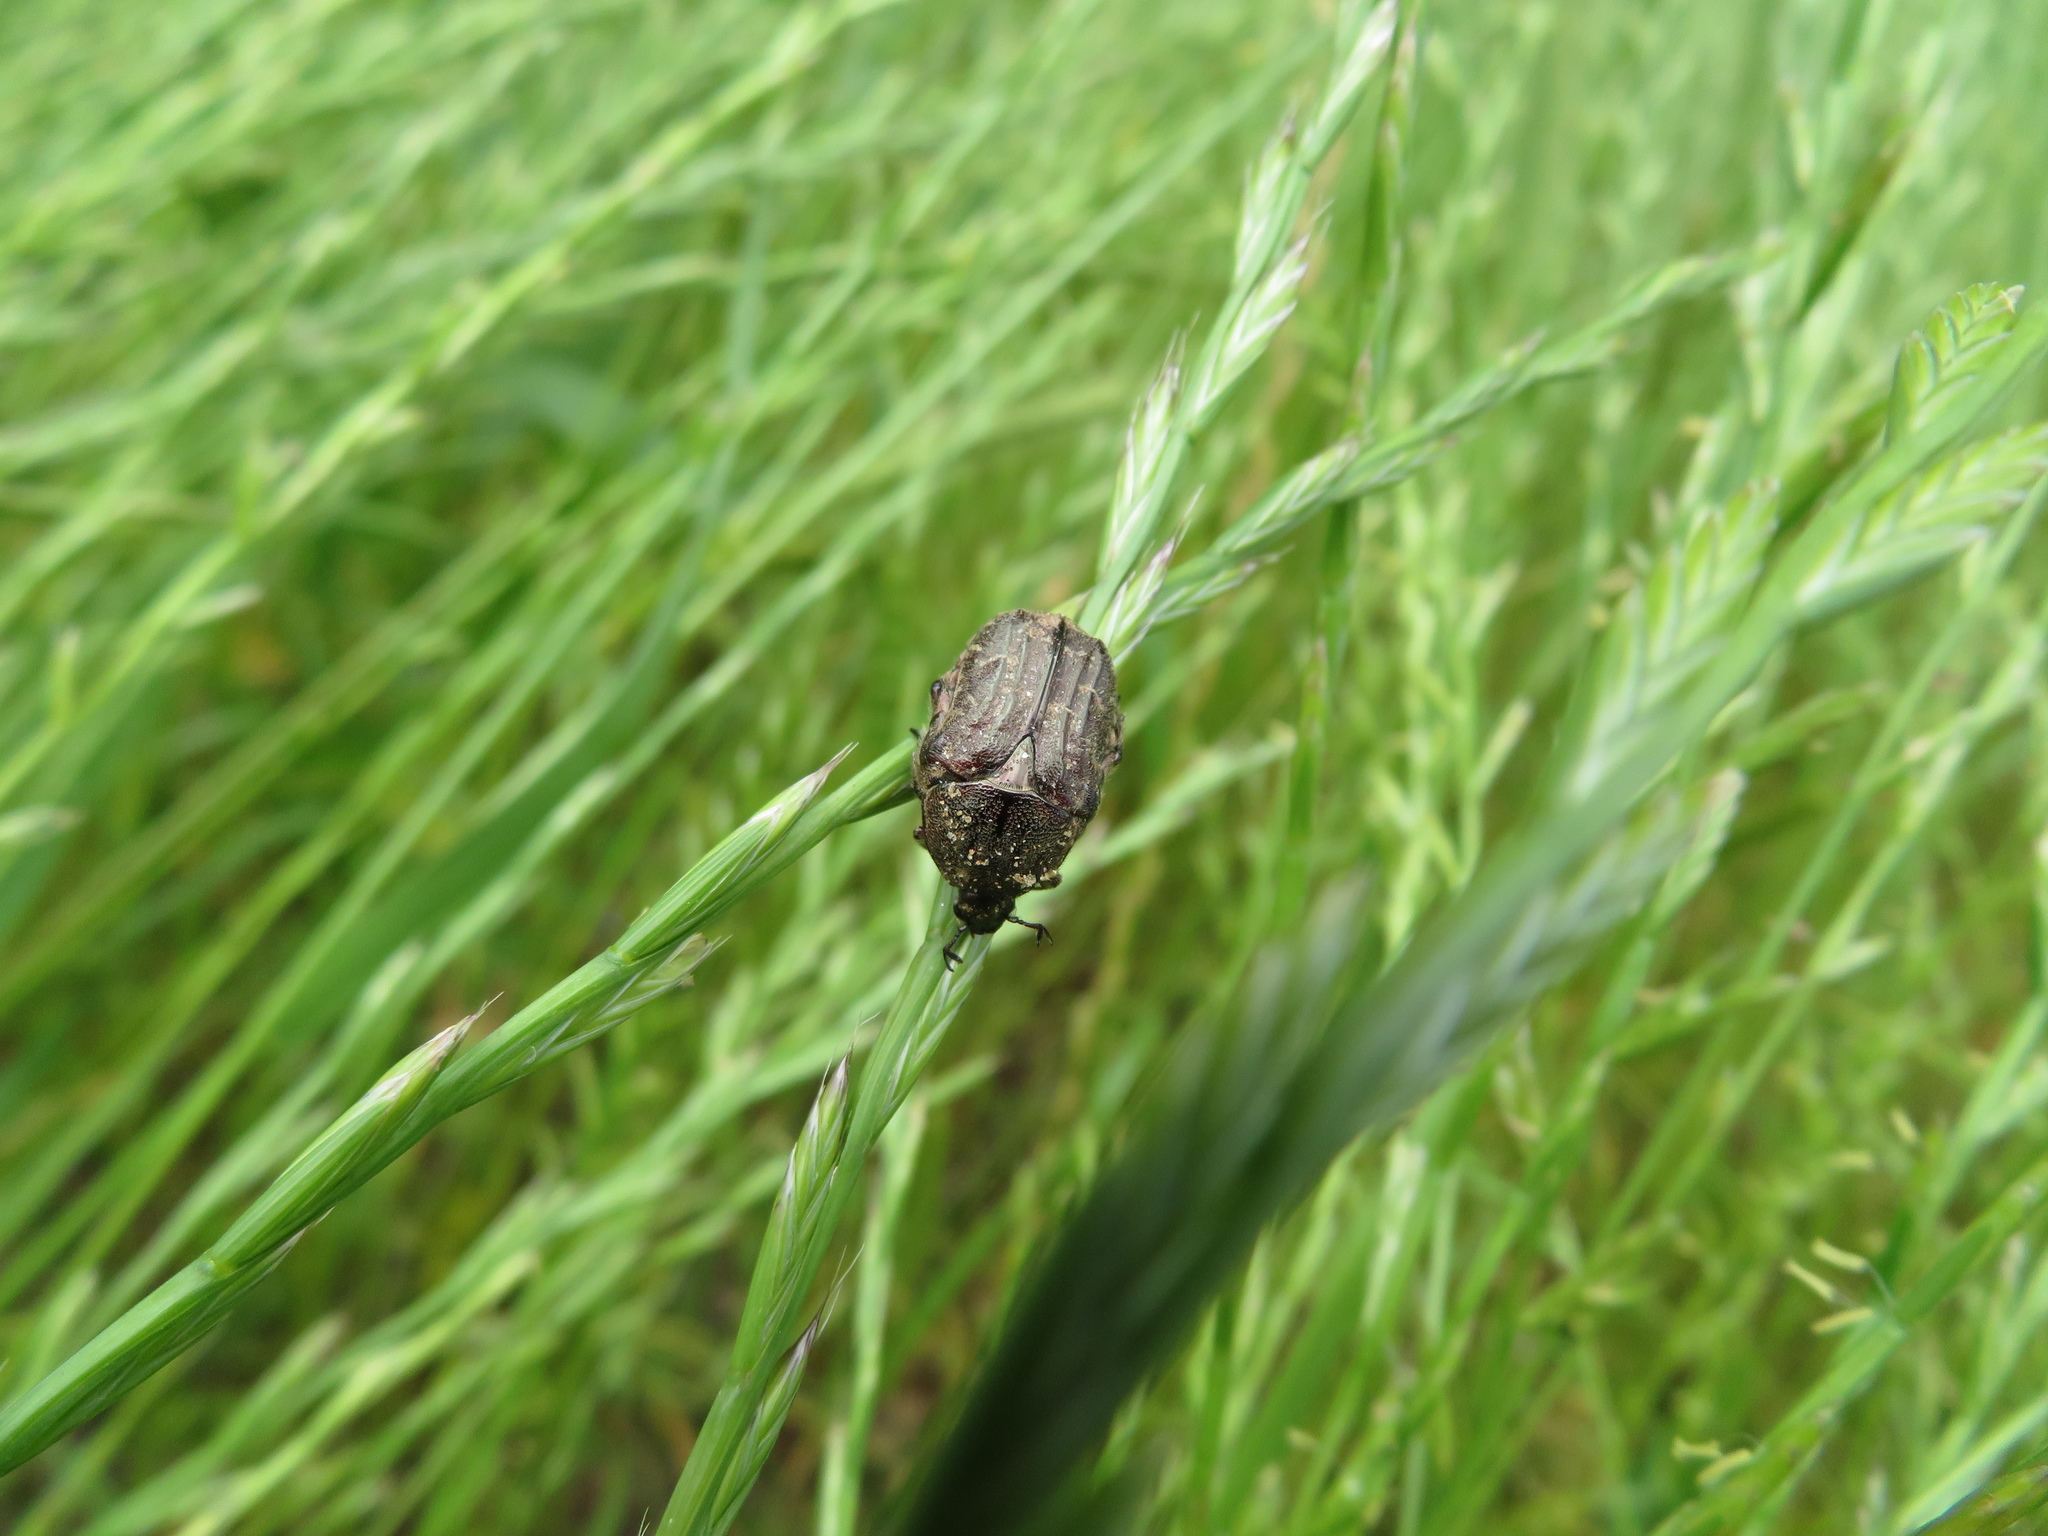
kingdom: Animalia
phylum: Arthropoda
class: Insecta
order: Coleoptera
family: Scarabaeidae
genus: Euphoria
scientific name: Euphoria sepulcralis
